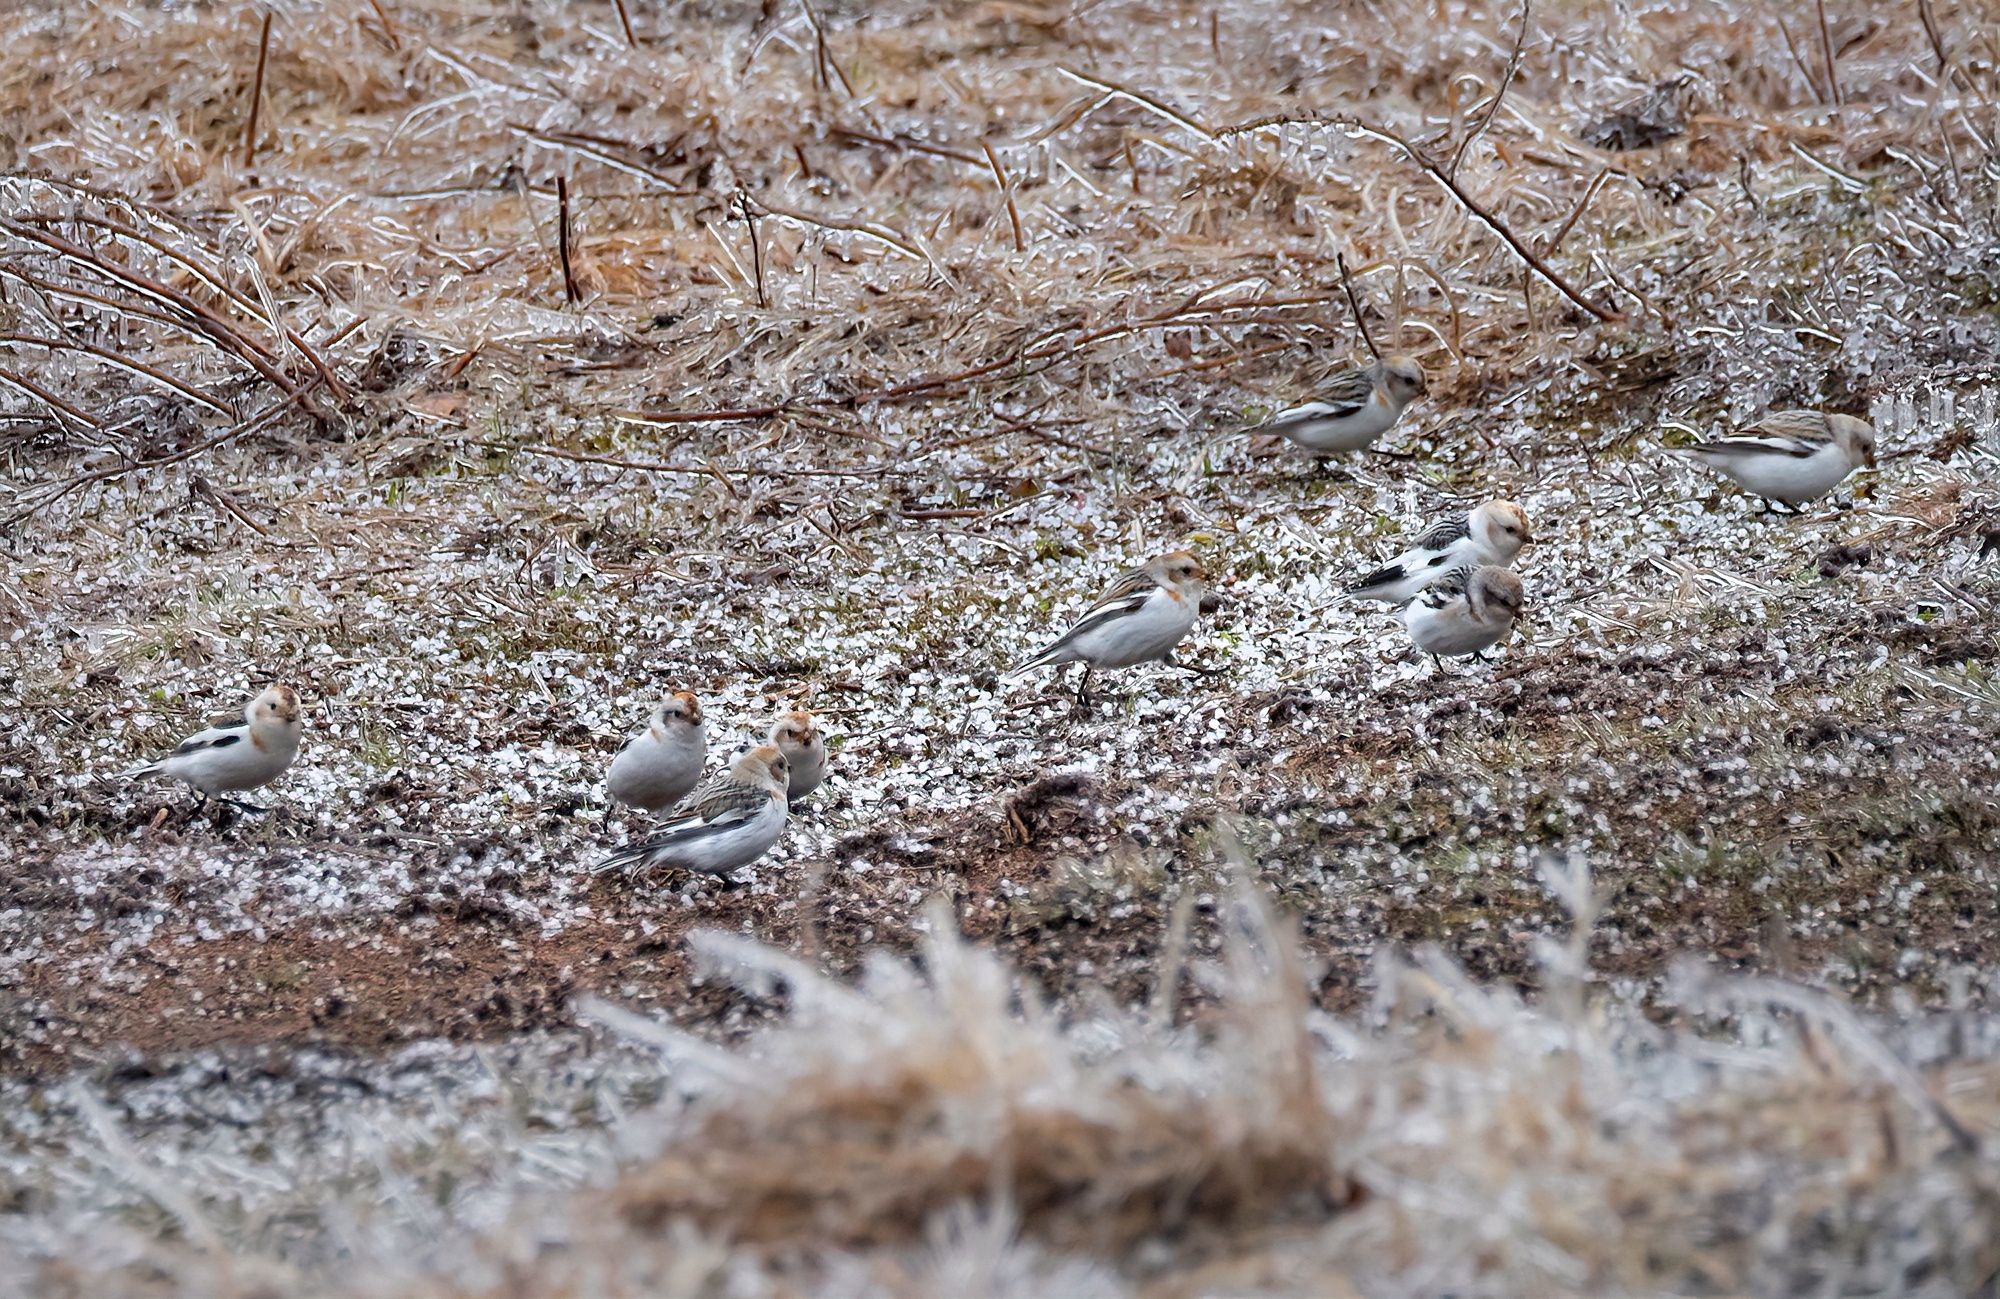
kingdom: Animalia
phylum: Chordata
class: Aves
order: Passeriformes
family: Calcariidae
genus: Plectrophenax
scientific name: Plectrophenax nivalis
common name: Snow bunting
